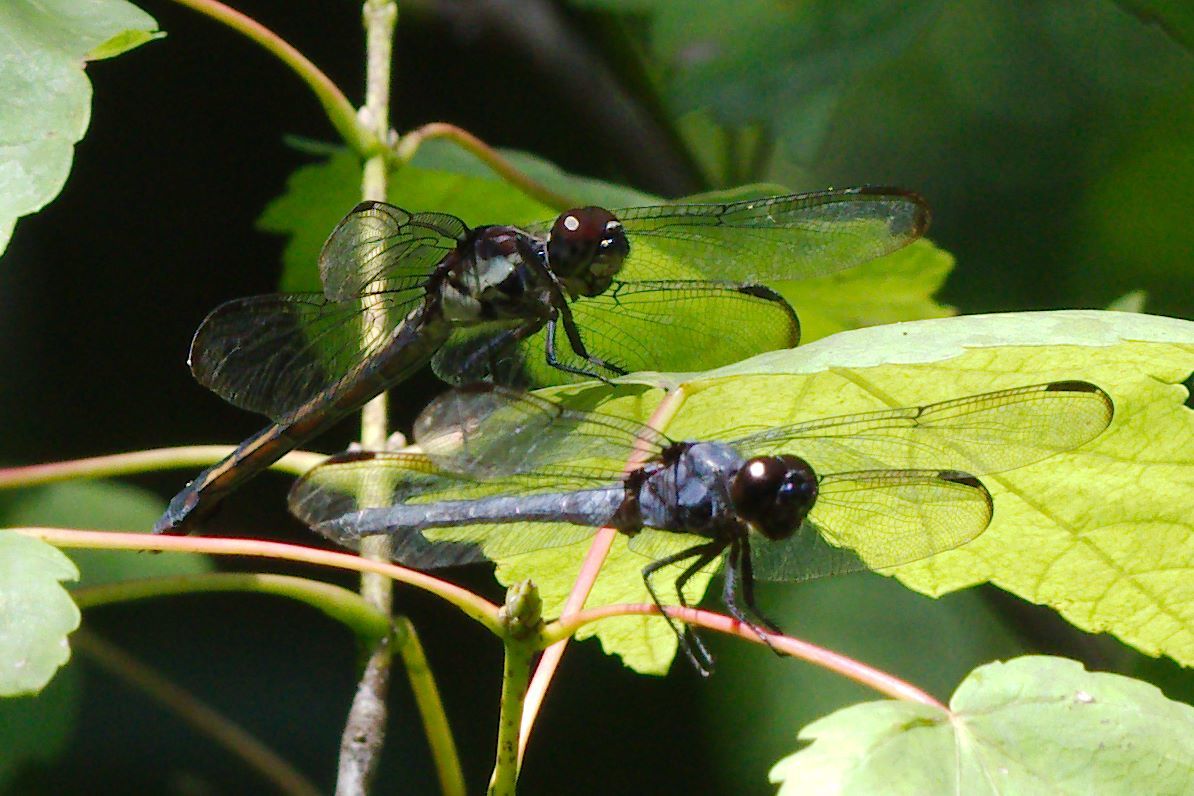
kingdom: Animalia
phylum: Arthropoda
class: Insecta
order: Odonata
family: Libellulidae
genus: Libellula
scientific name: Libellula incesta
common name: Slaty skimmer
